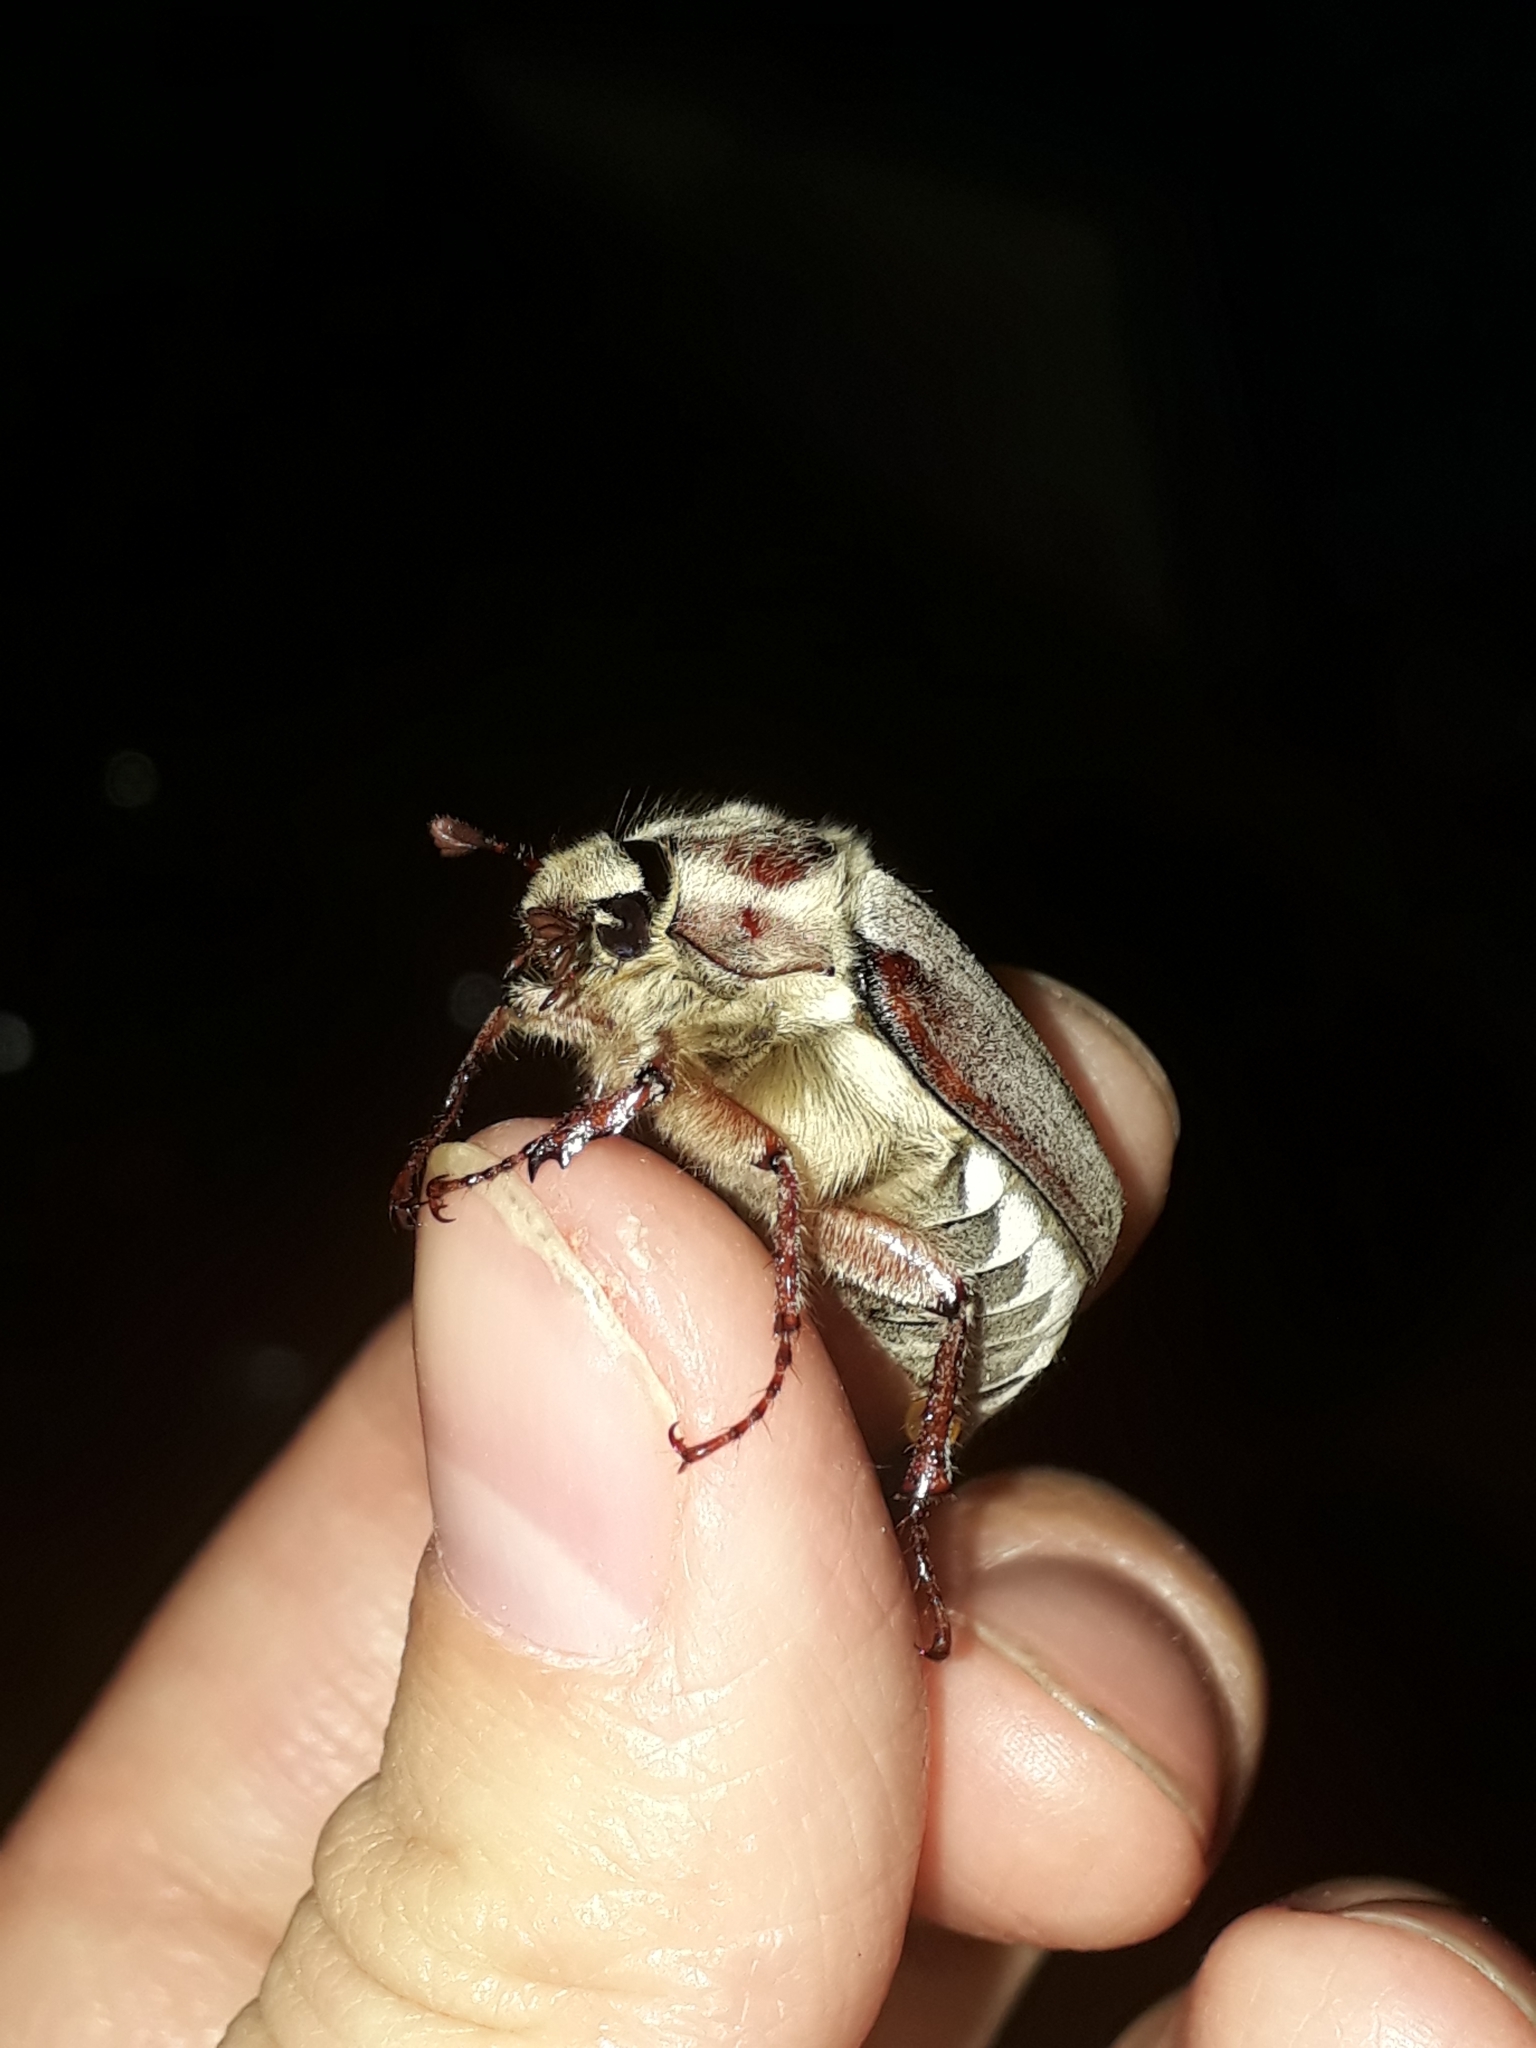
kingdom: Animalia
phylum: Arthropoda
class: Insecta
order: Coleoptera
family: Scarabaeidae
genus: Melolontha
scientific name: Melolontha hippocastani
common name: Chestnut cockchafer
